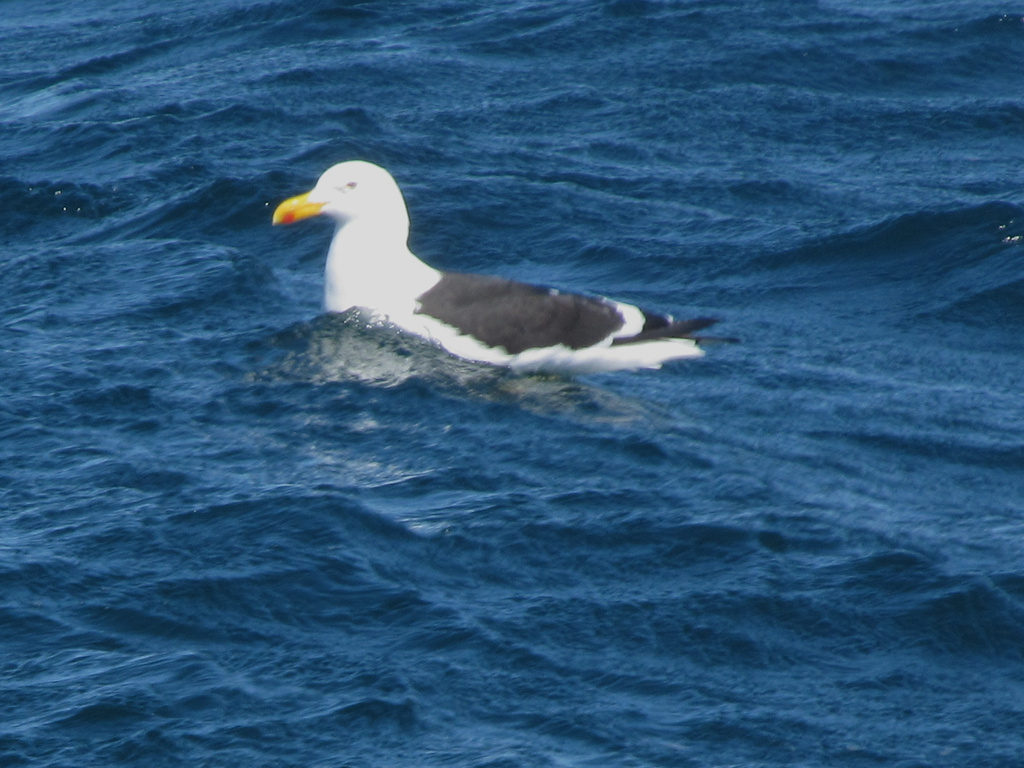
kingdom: Animalia
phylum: Chordata
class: Aves
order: Charadriiformes
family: Laridae
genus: Larus
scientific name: Larus dominicanus
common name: Kelp gull
